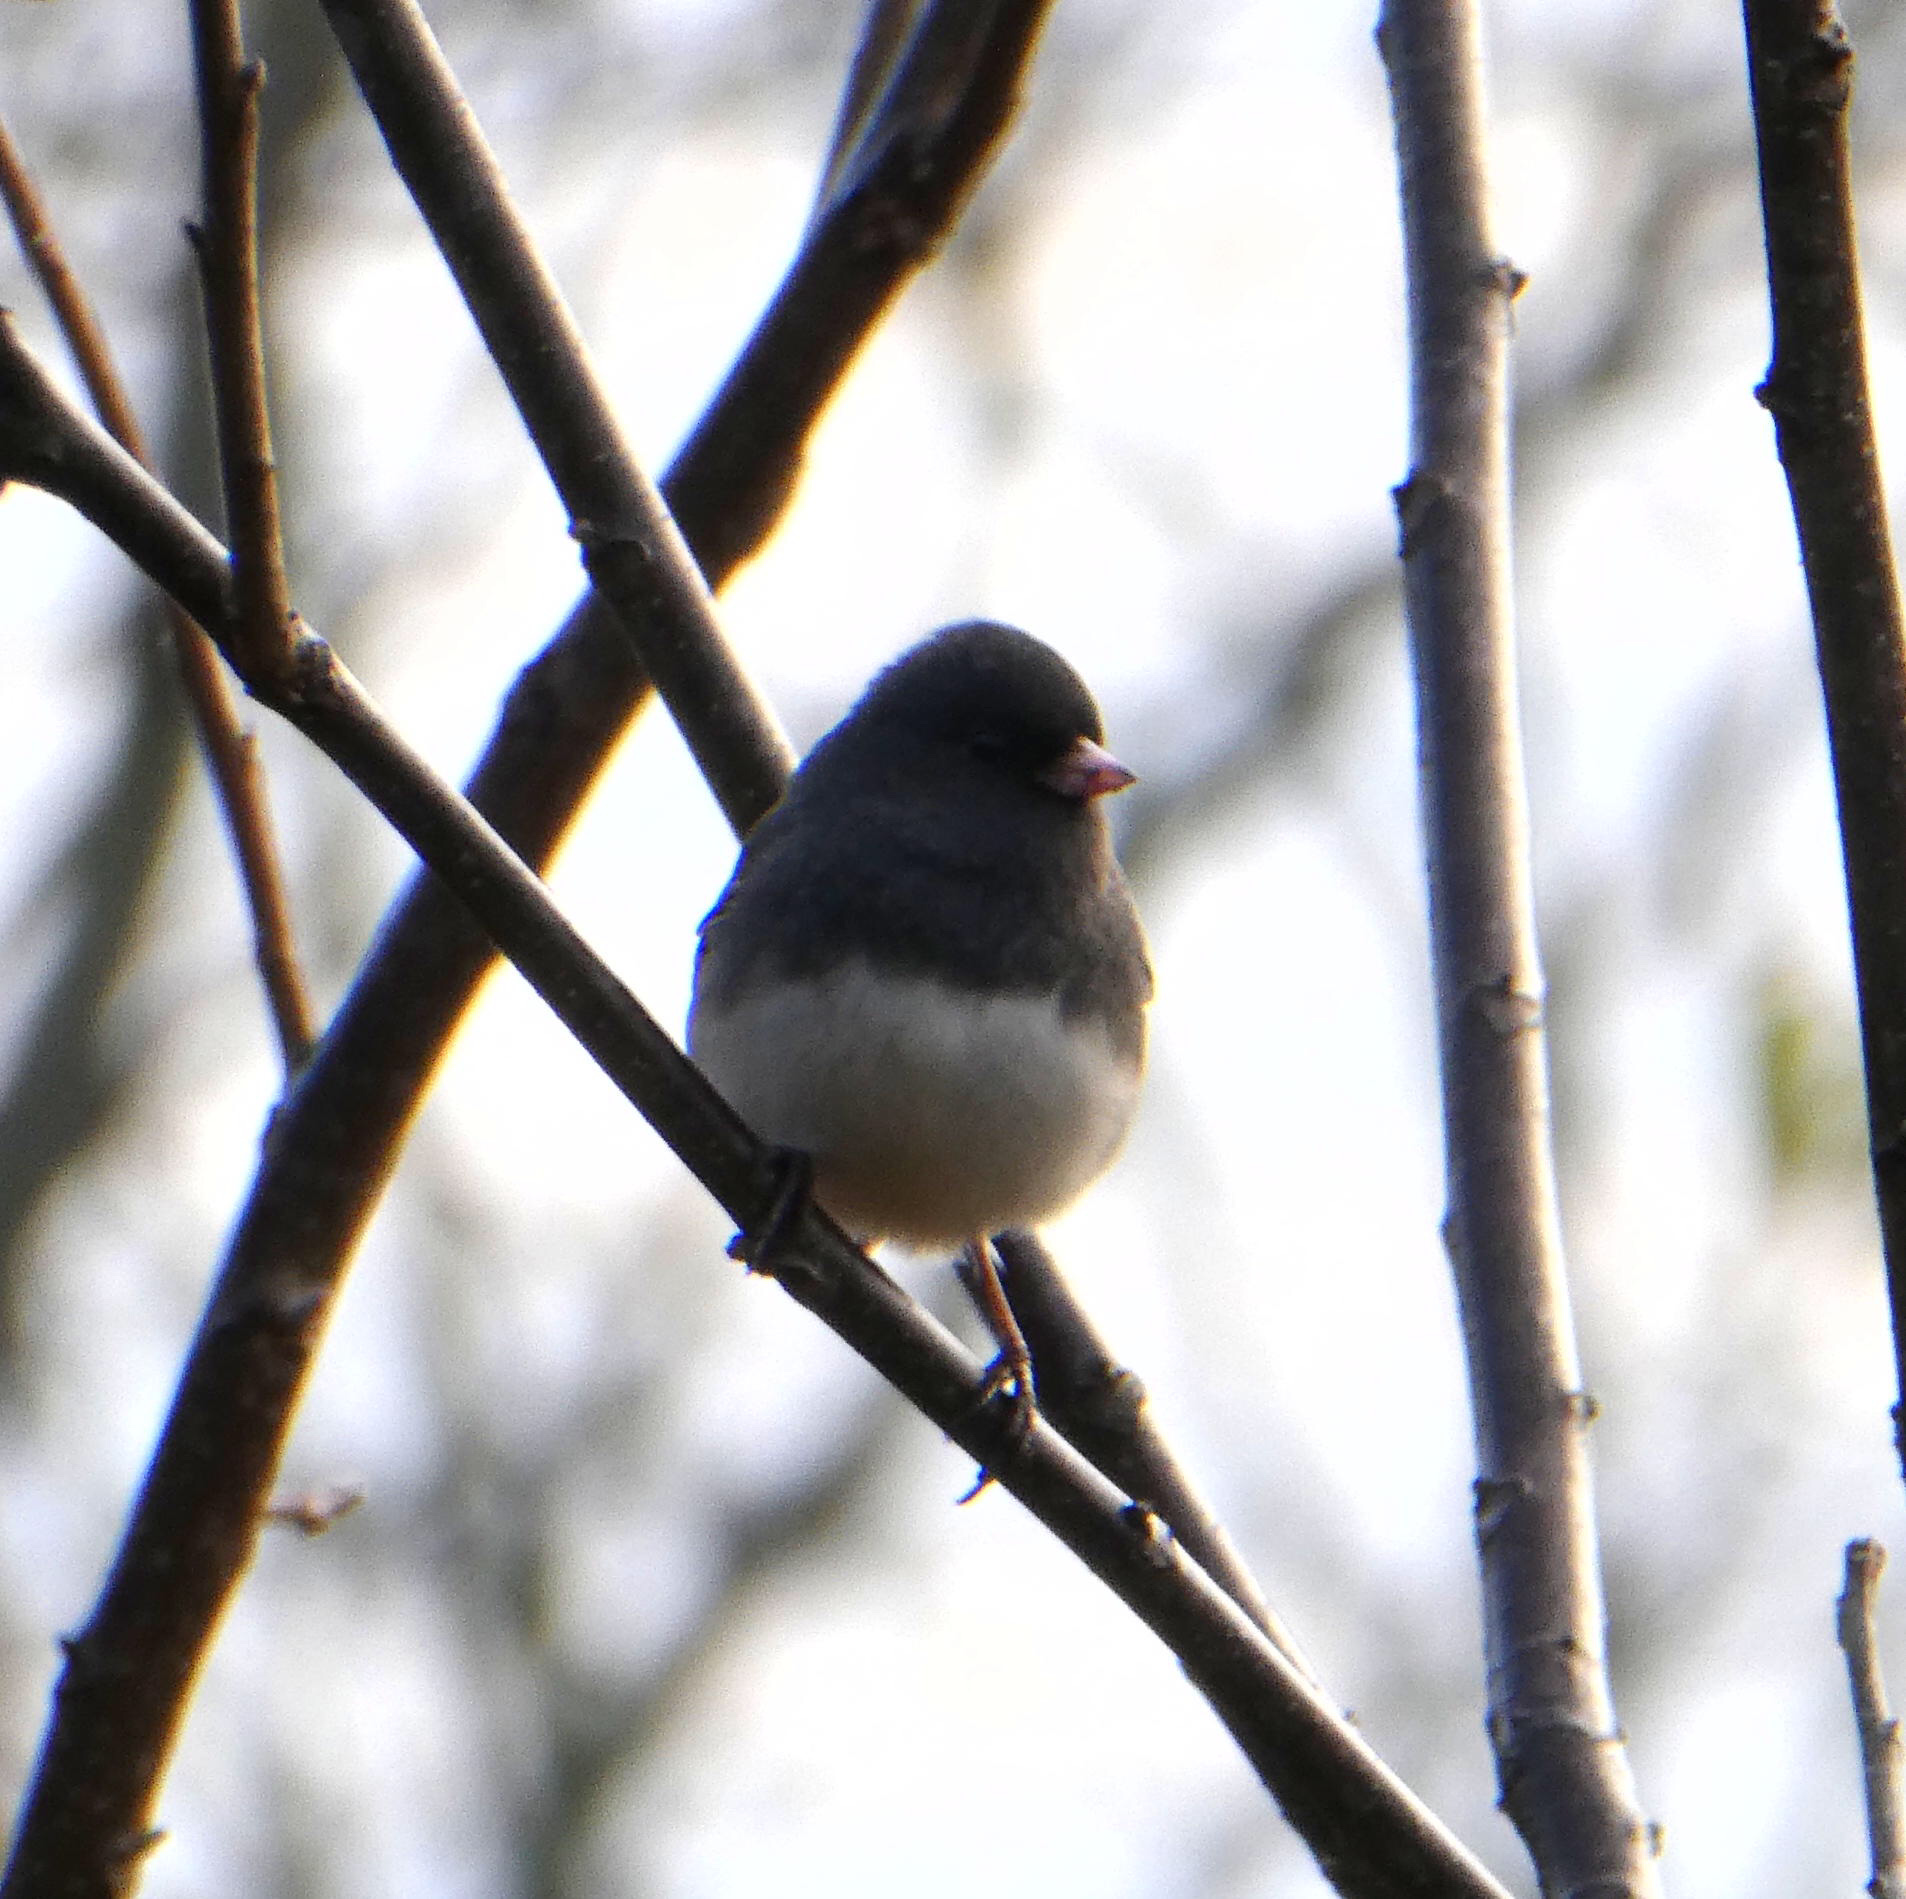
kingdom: Animalia
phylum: Chordata
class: Aves
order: Passeriformes
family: Passerellidae
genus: Junco
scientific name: Junco hyemalis
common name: Dark-eyed junco
